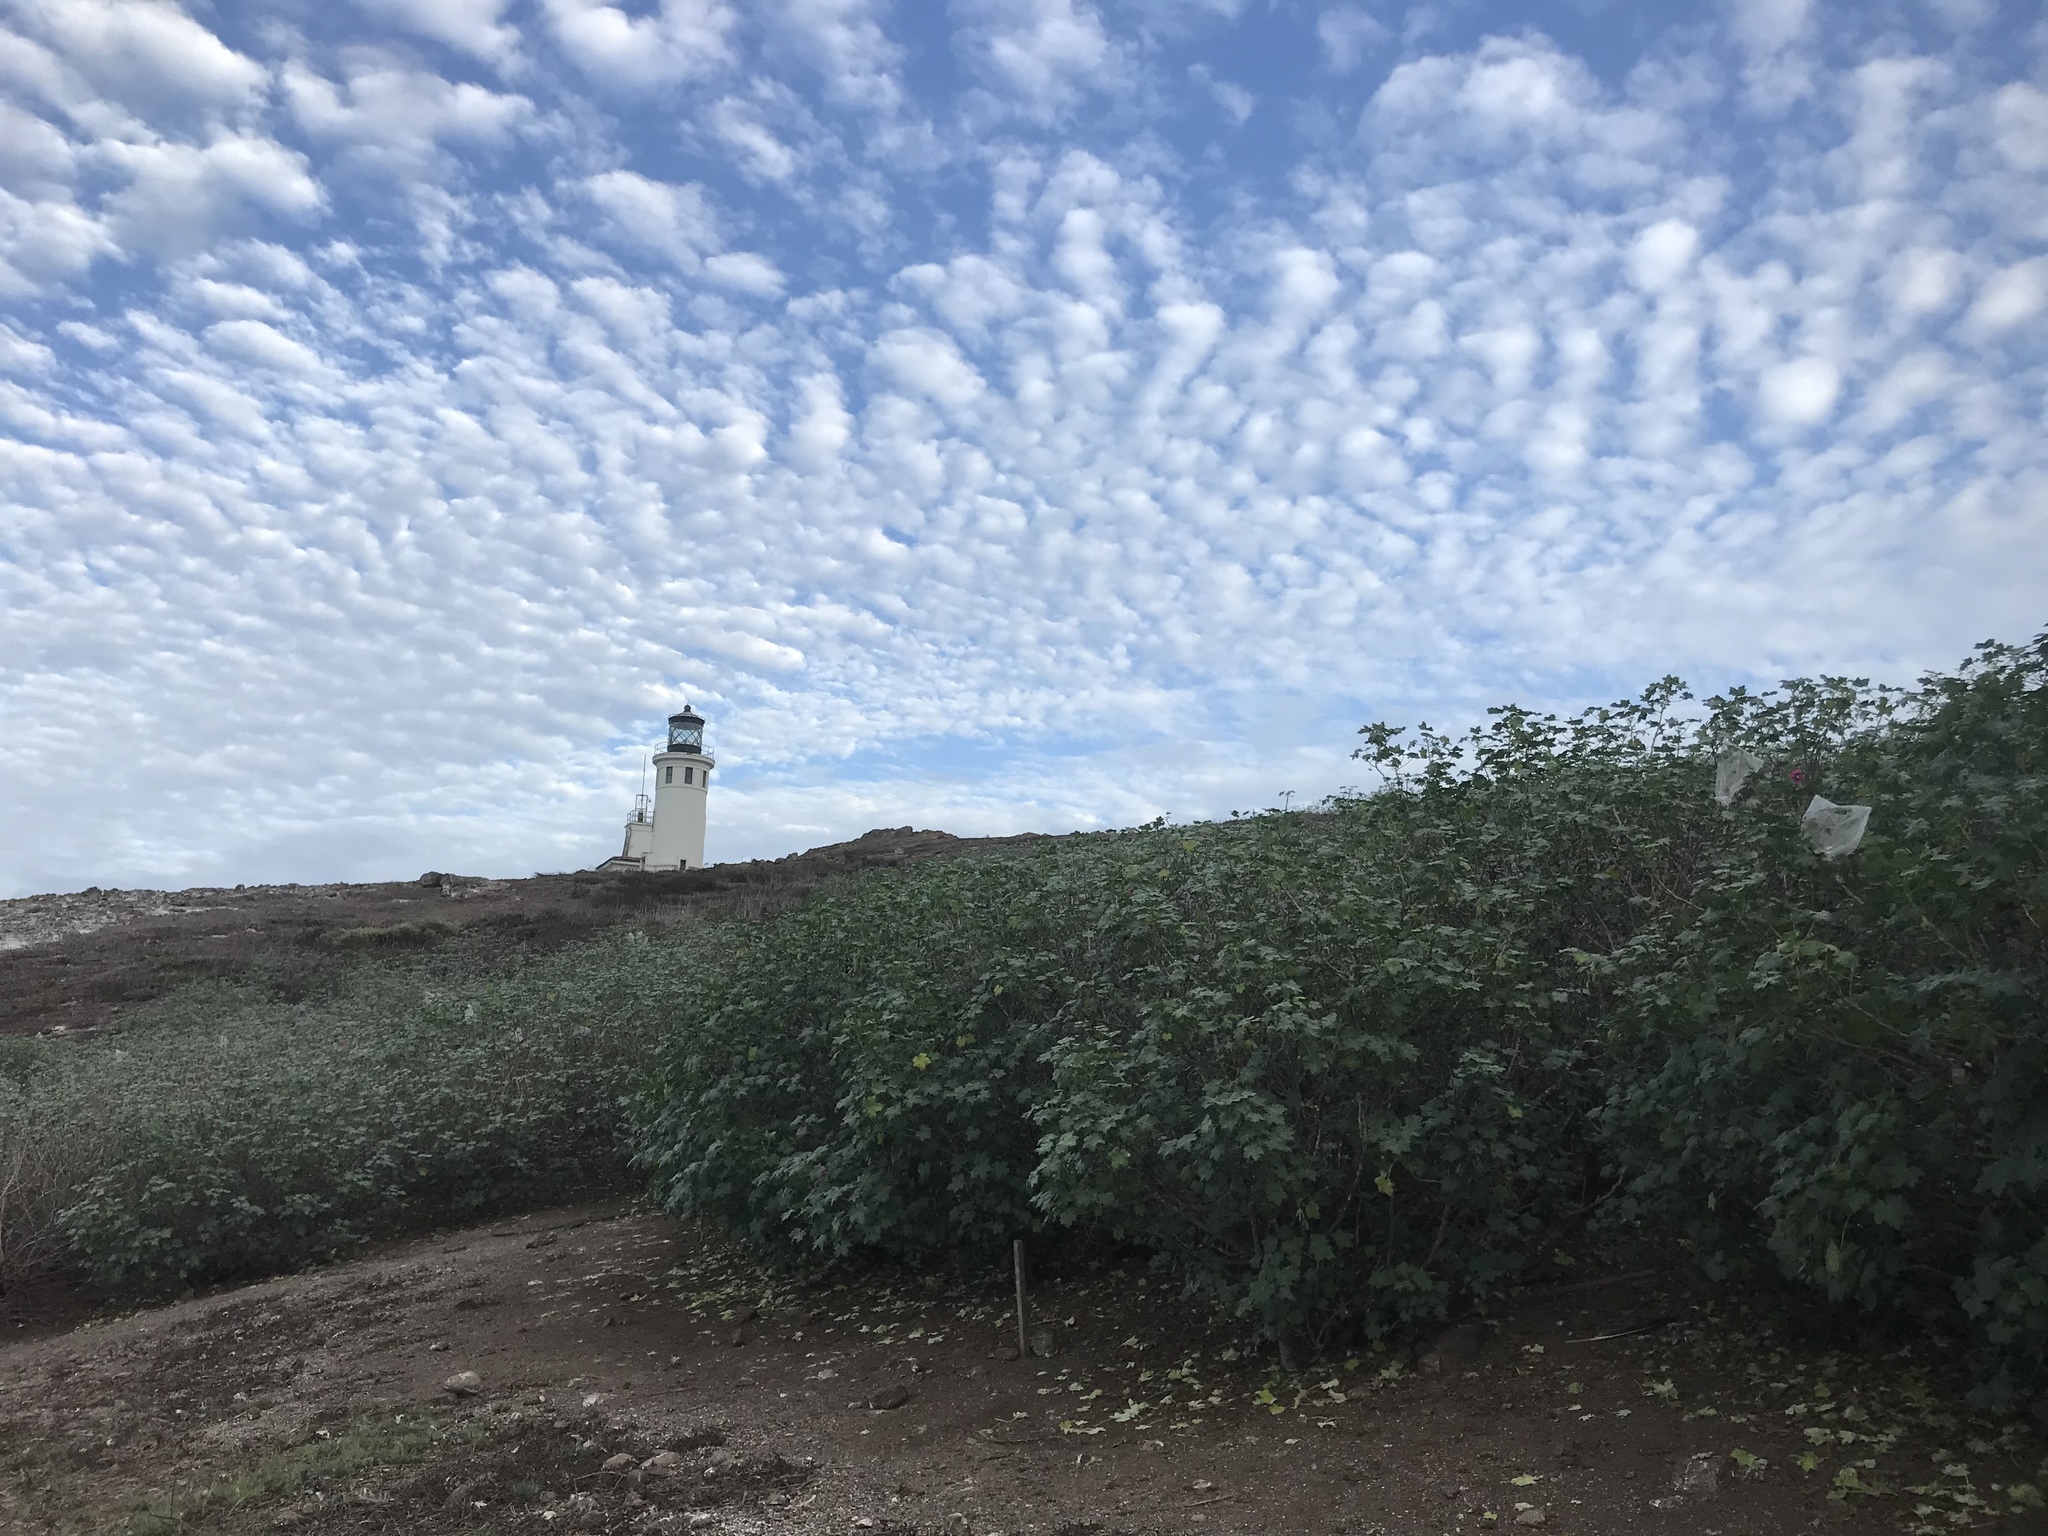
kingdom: Plantae
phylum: Tracheophyta
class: Magnoliopsida
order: Malvales
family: Malvaceae
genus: Malva
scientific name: Malva assurgentiflora
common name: Island mallow
